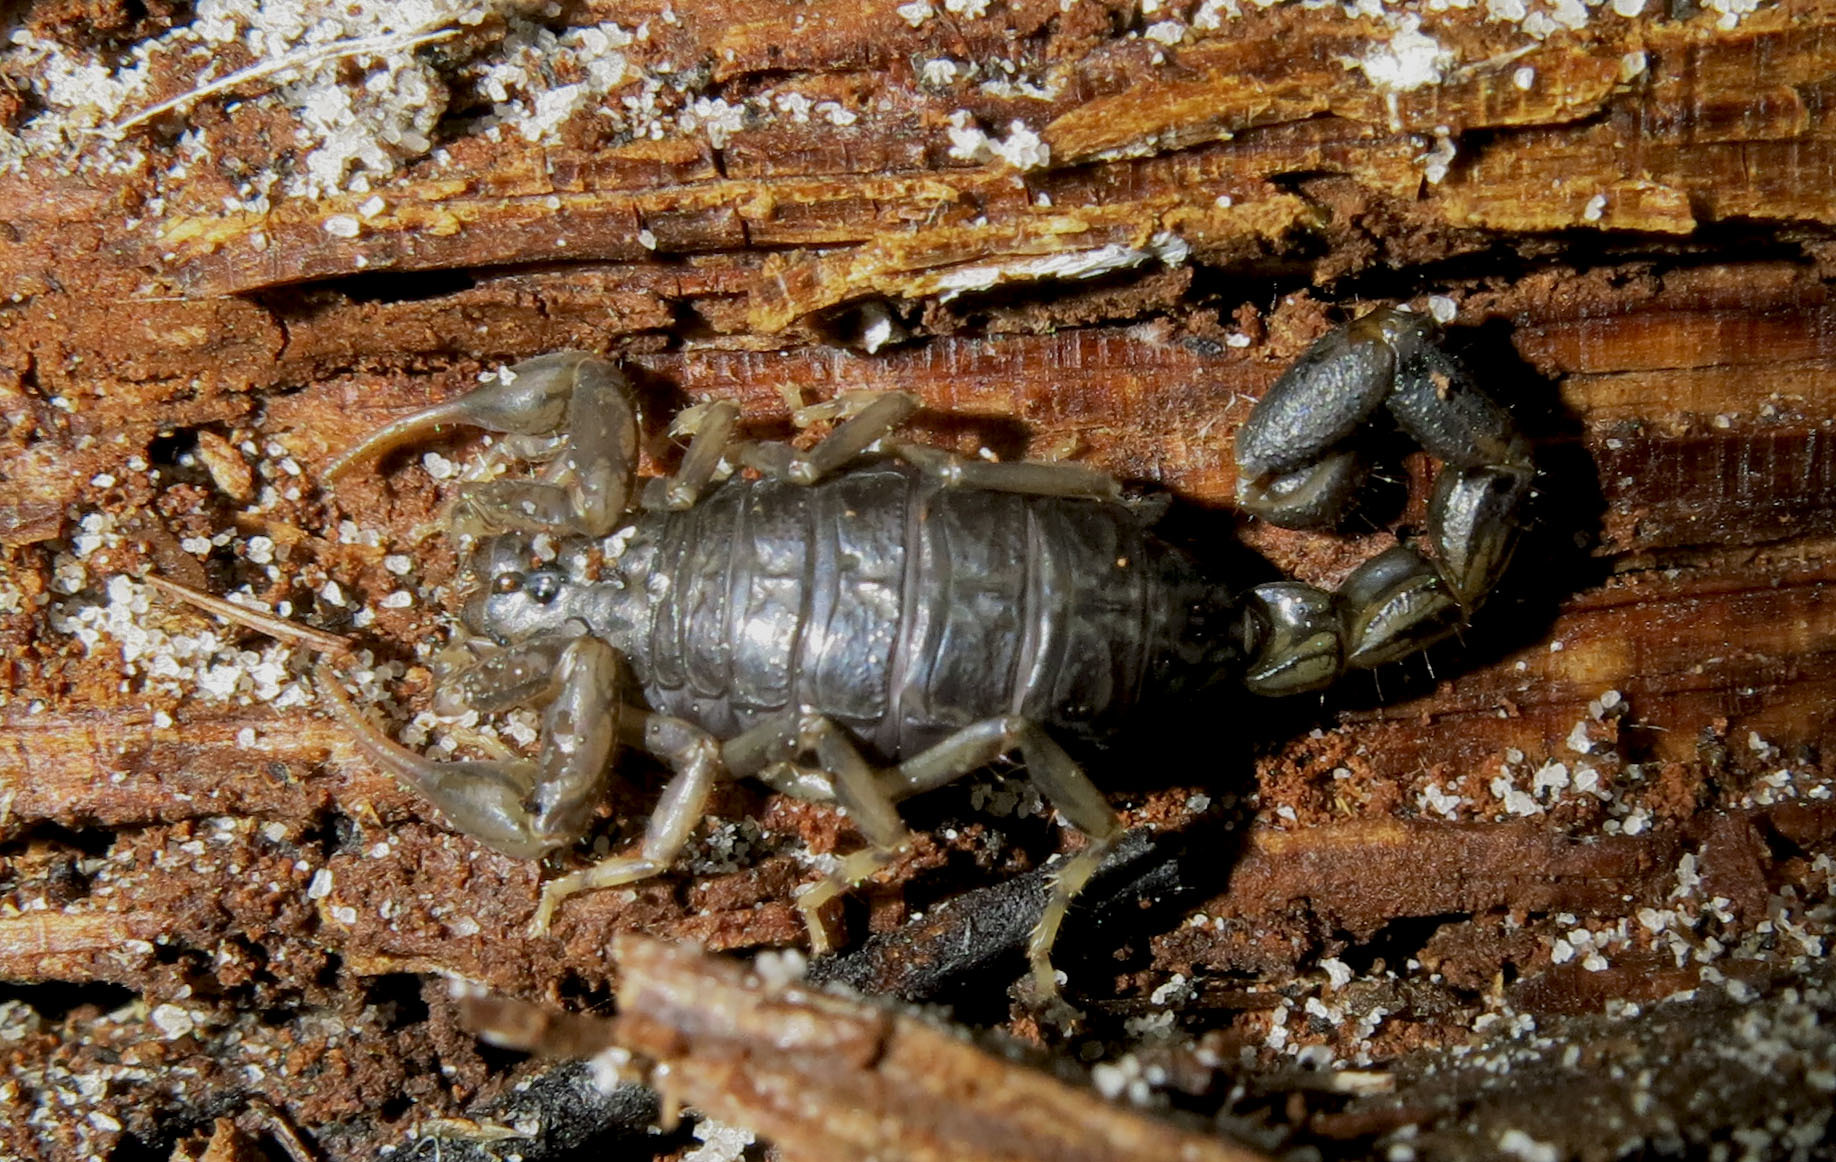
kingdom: Animalia
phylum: Arthropoda
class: Arachnida
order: Scorpiones
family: Buthidae
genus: Uroplectes
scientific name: Uroplectes insignis
